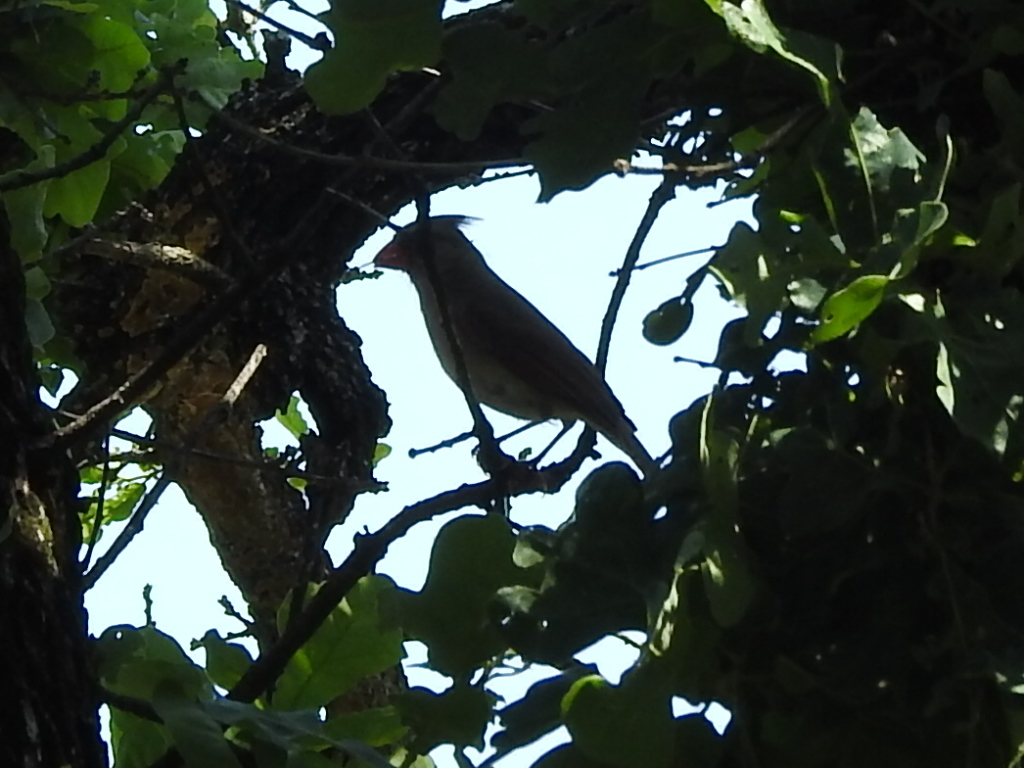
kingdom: Animalia
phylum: Chordata
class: Aves
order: Passeriformes
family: Cardinalidae
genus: Cardinalis
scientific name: Cardinalis cardinalis
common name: Northern cardinal
